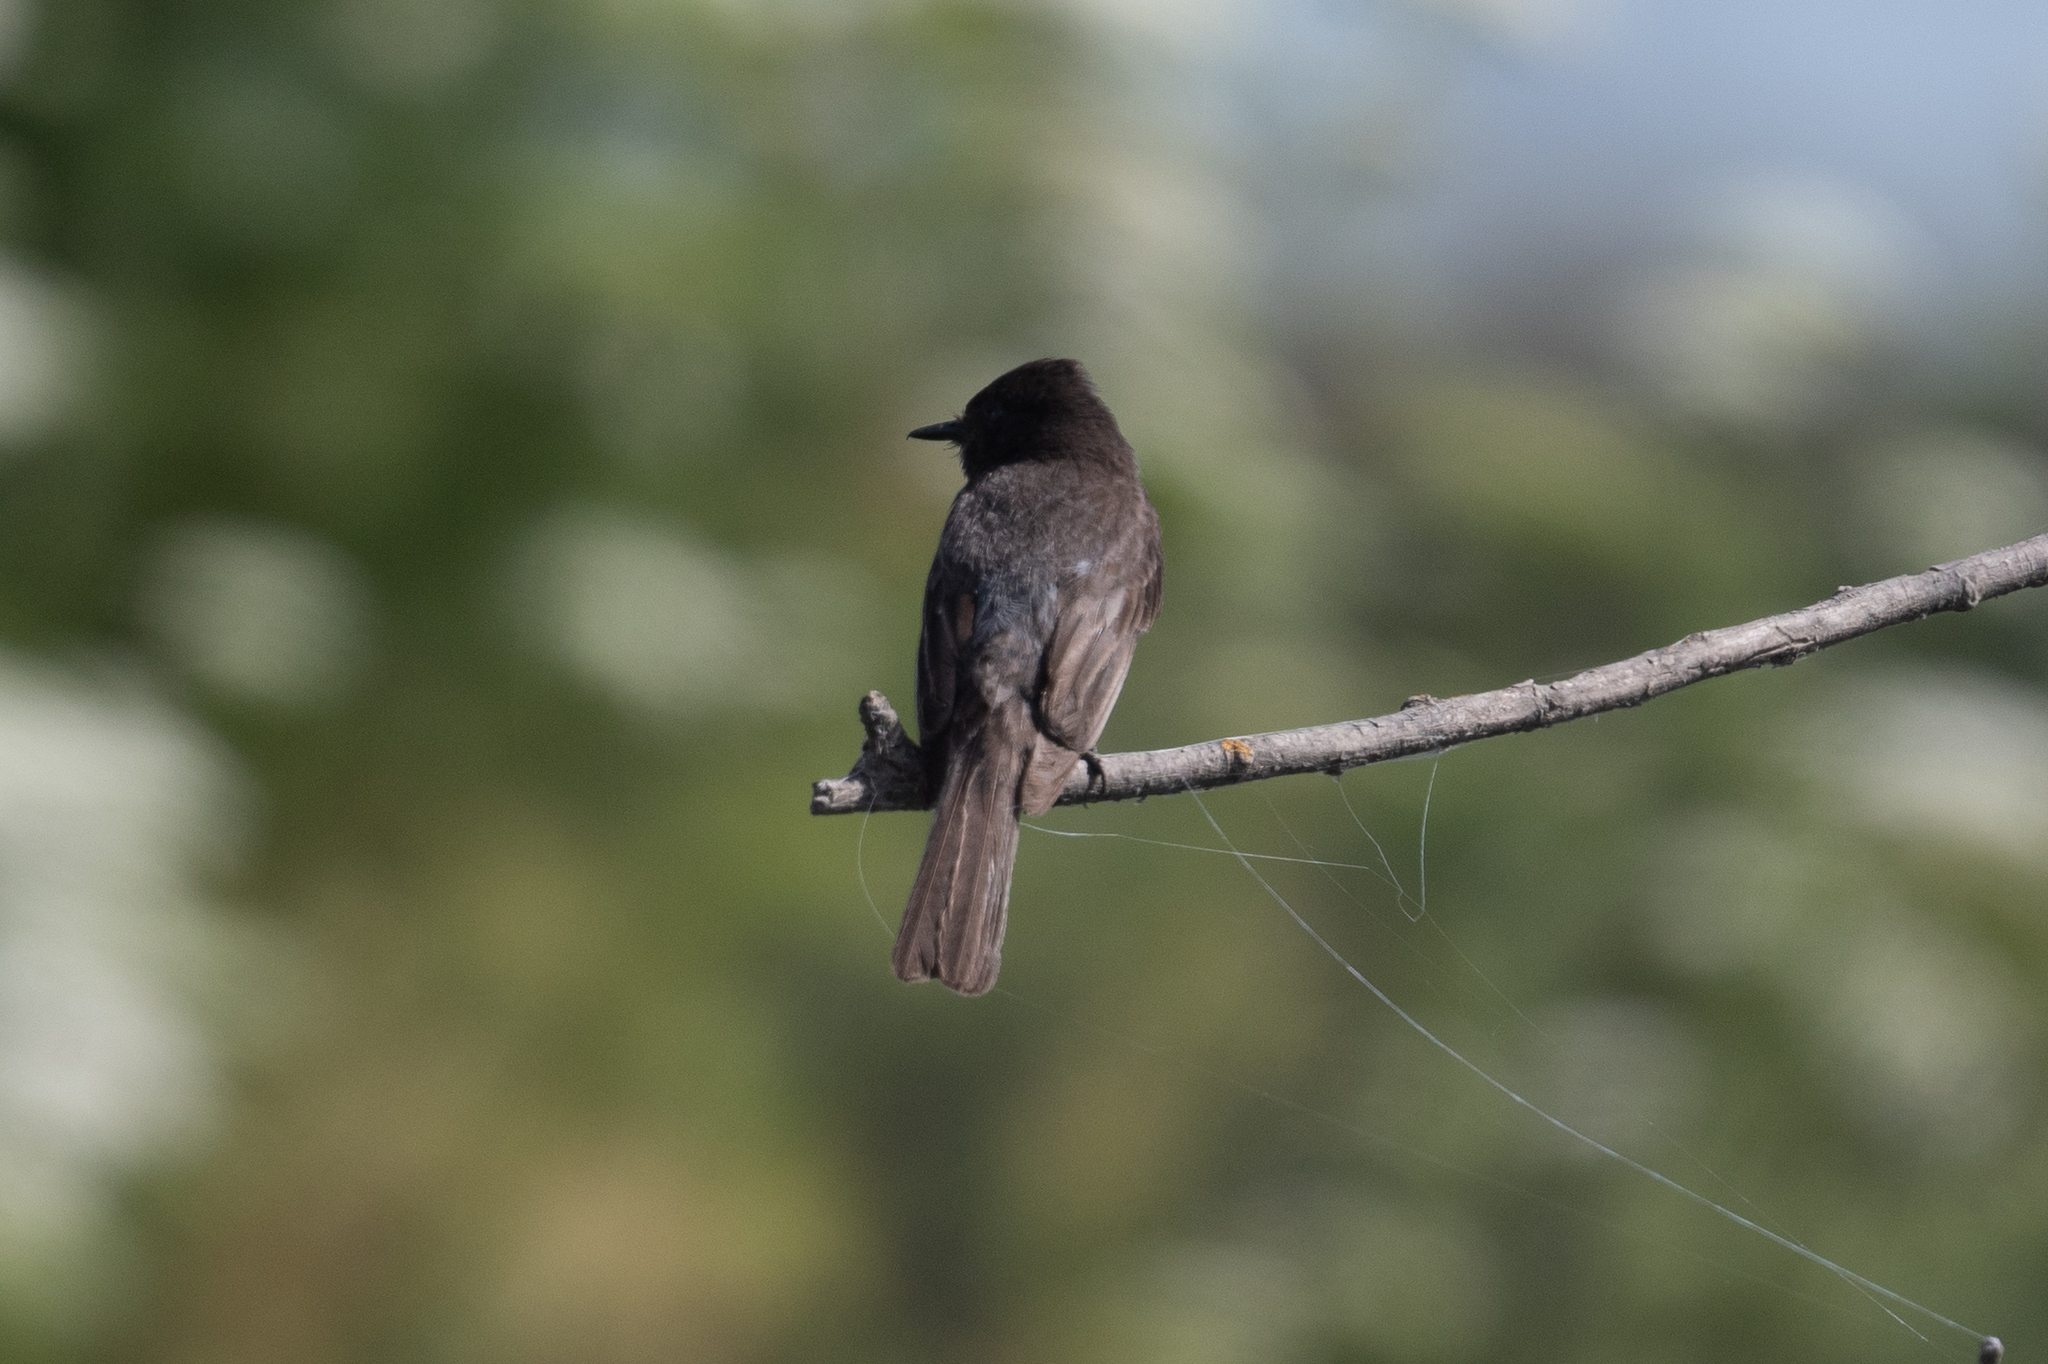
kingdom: Animalia
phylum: Chordata
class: Aves
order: Passeriformes
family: Tyrannidae
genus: Sayornis
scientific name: Sayornis nigricans
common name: Black phoebe
